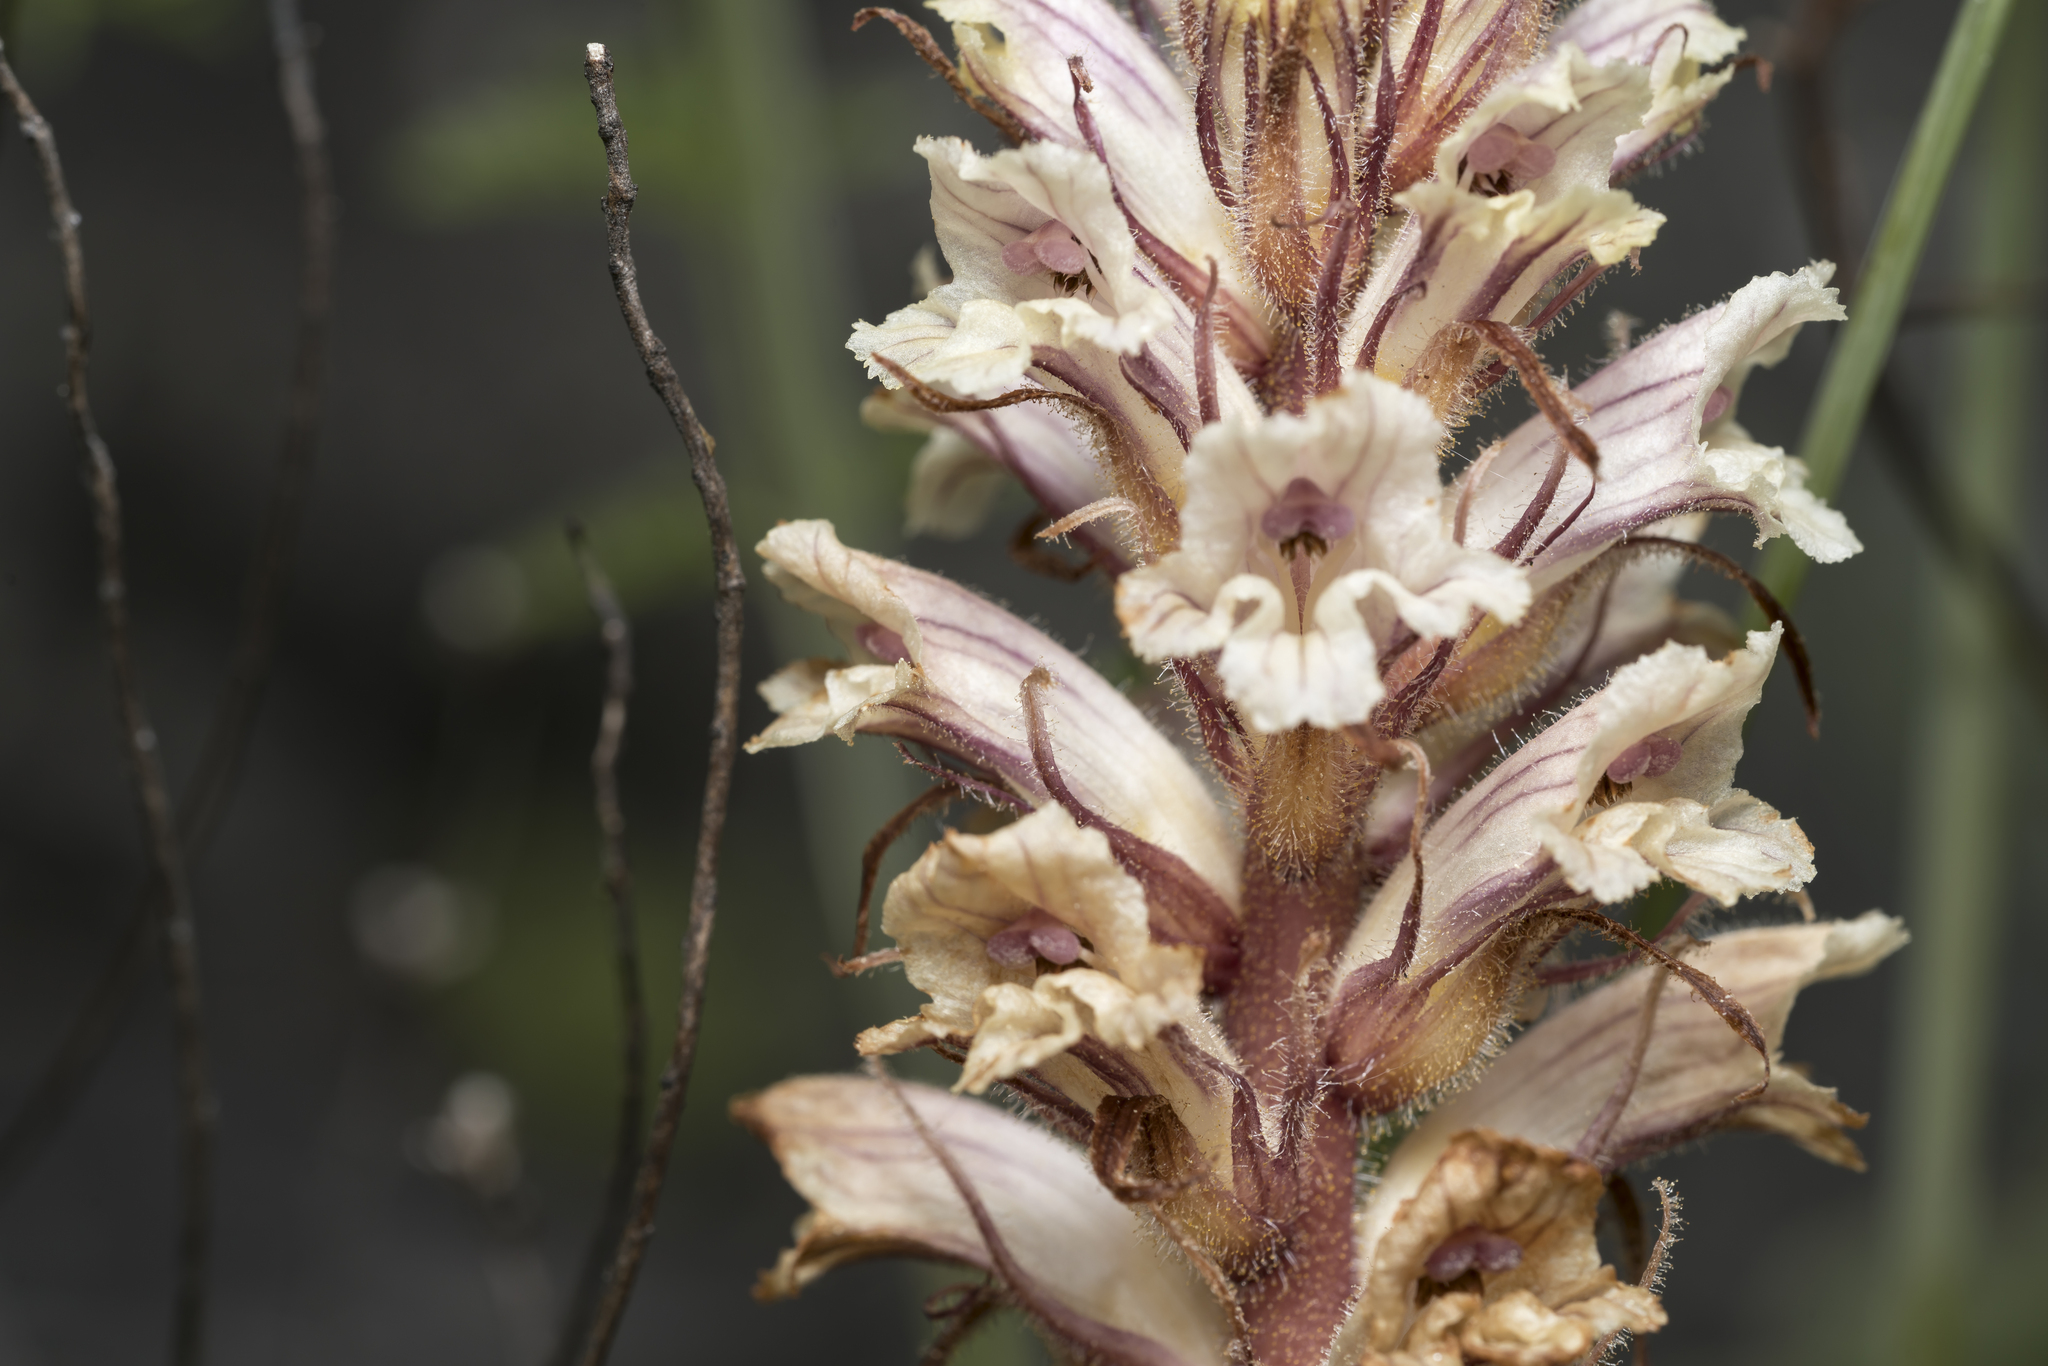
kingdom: Plantae
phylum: Tracheophyta
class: Magnoliopsida
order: Lamiales
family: Orobanchaceae
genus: Orobanche
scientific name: Orobanche artemisiae-campestris
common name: Oxtongue broomrape
